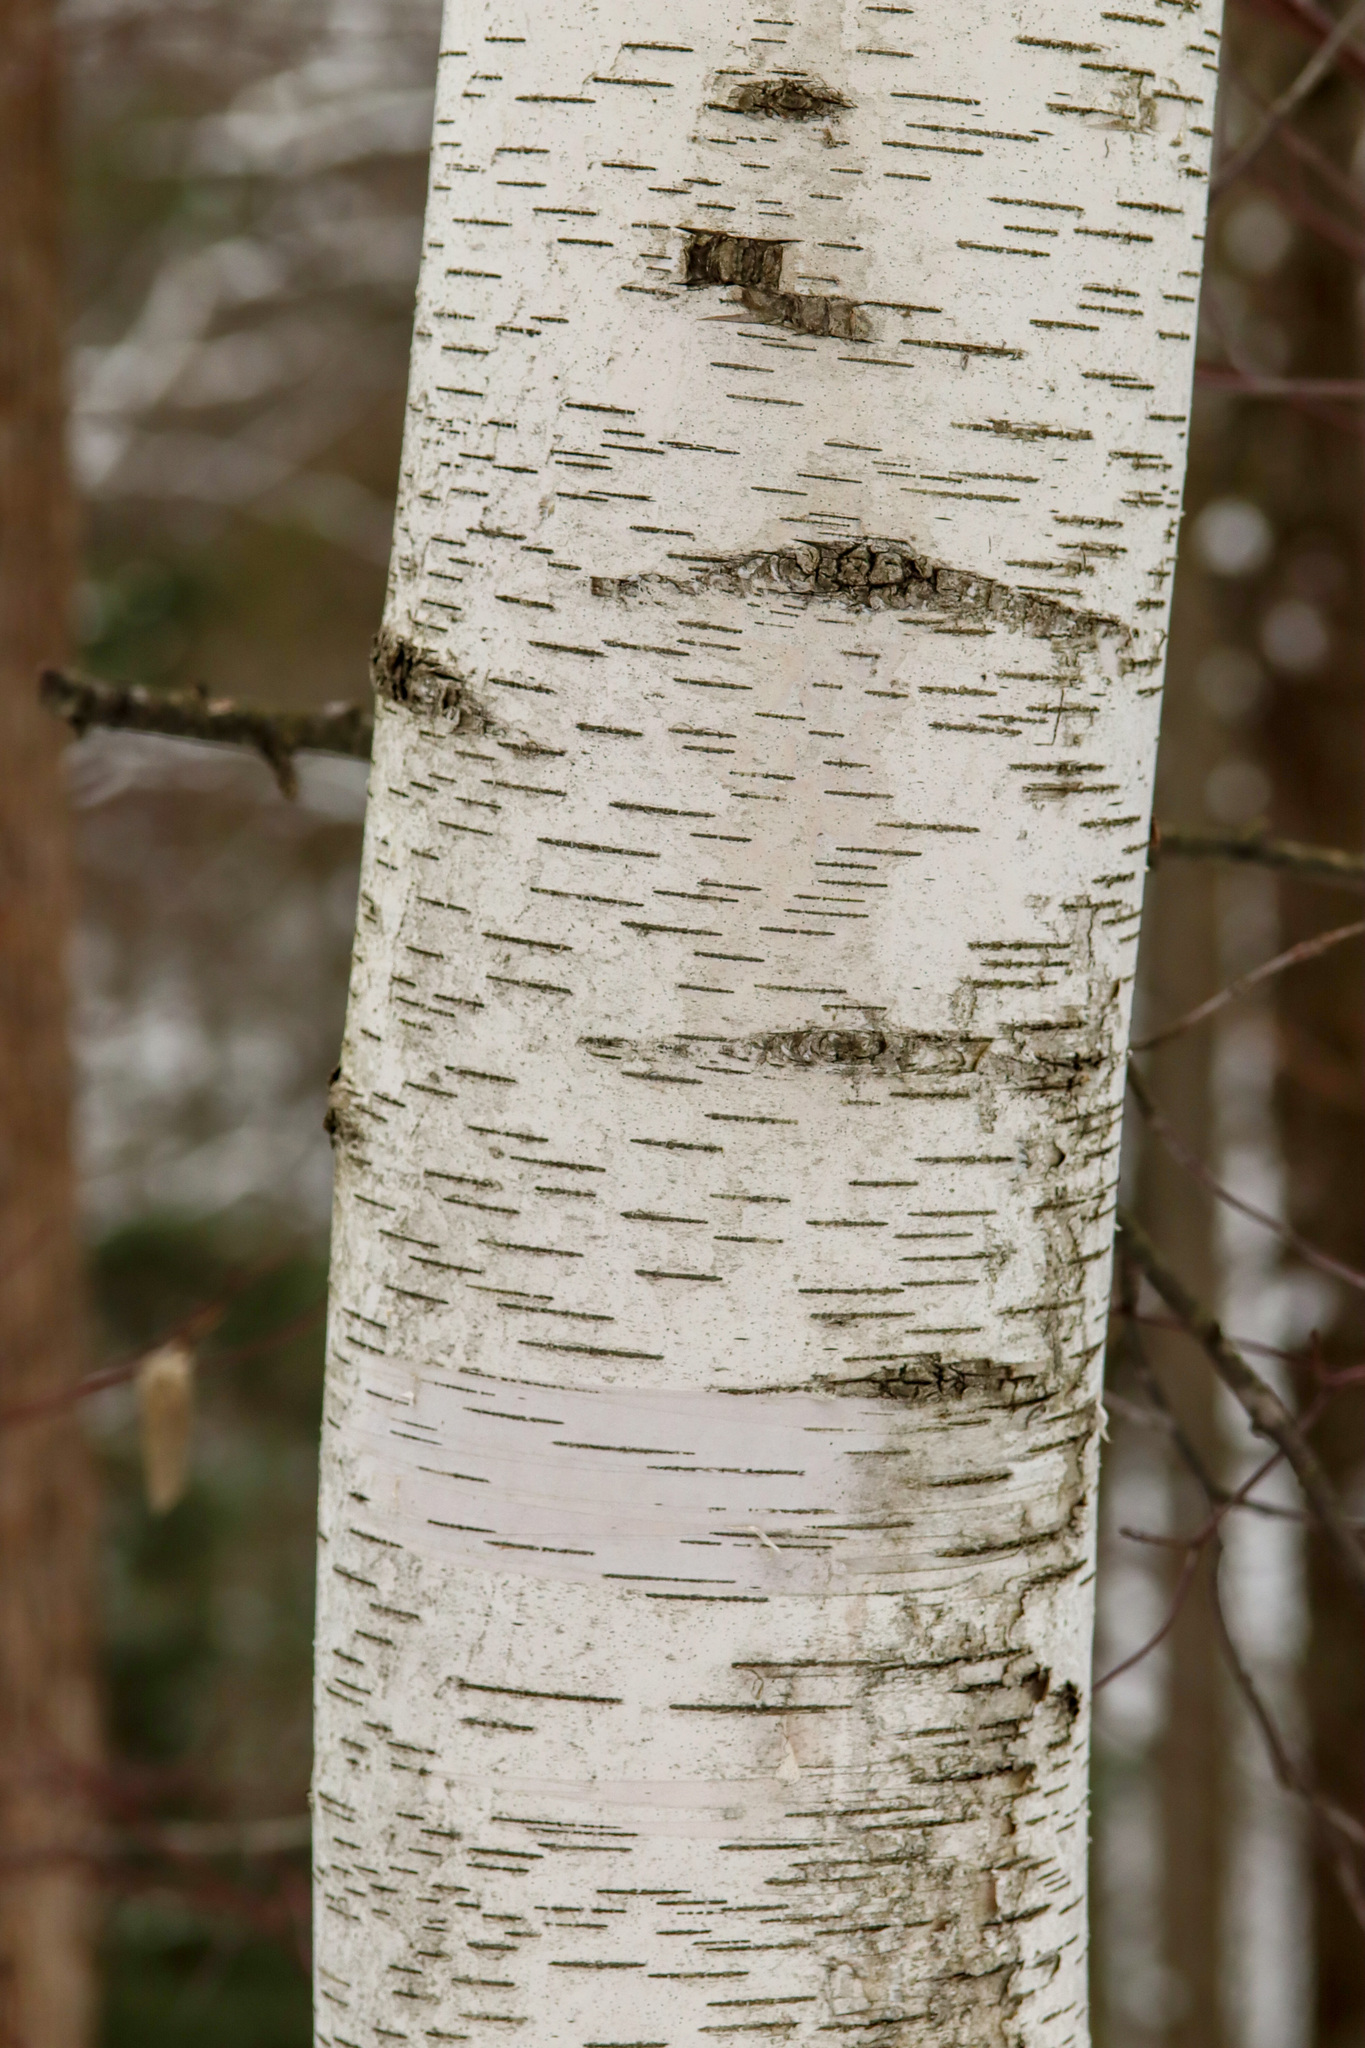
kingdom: Plantae
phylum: Tracheophyta
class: Magnoliopsida
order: Fagales
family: Betulaceae
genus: Betula
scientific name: Betula papyrifera
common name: Paper birch
